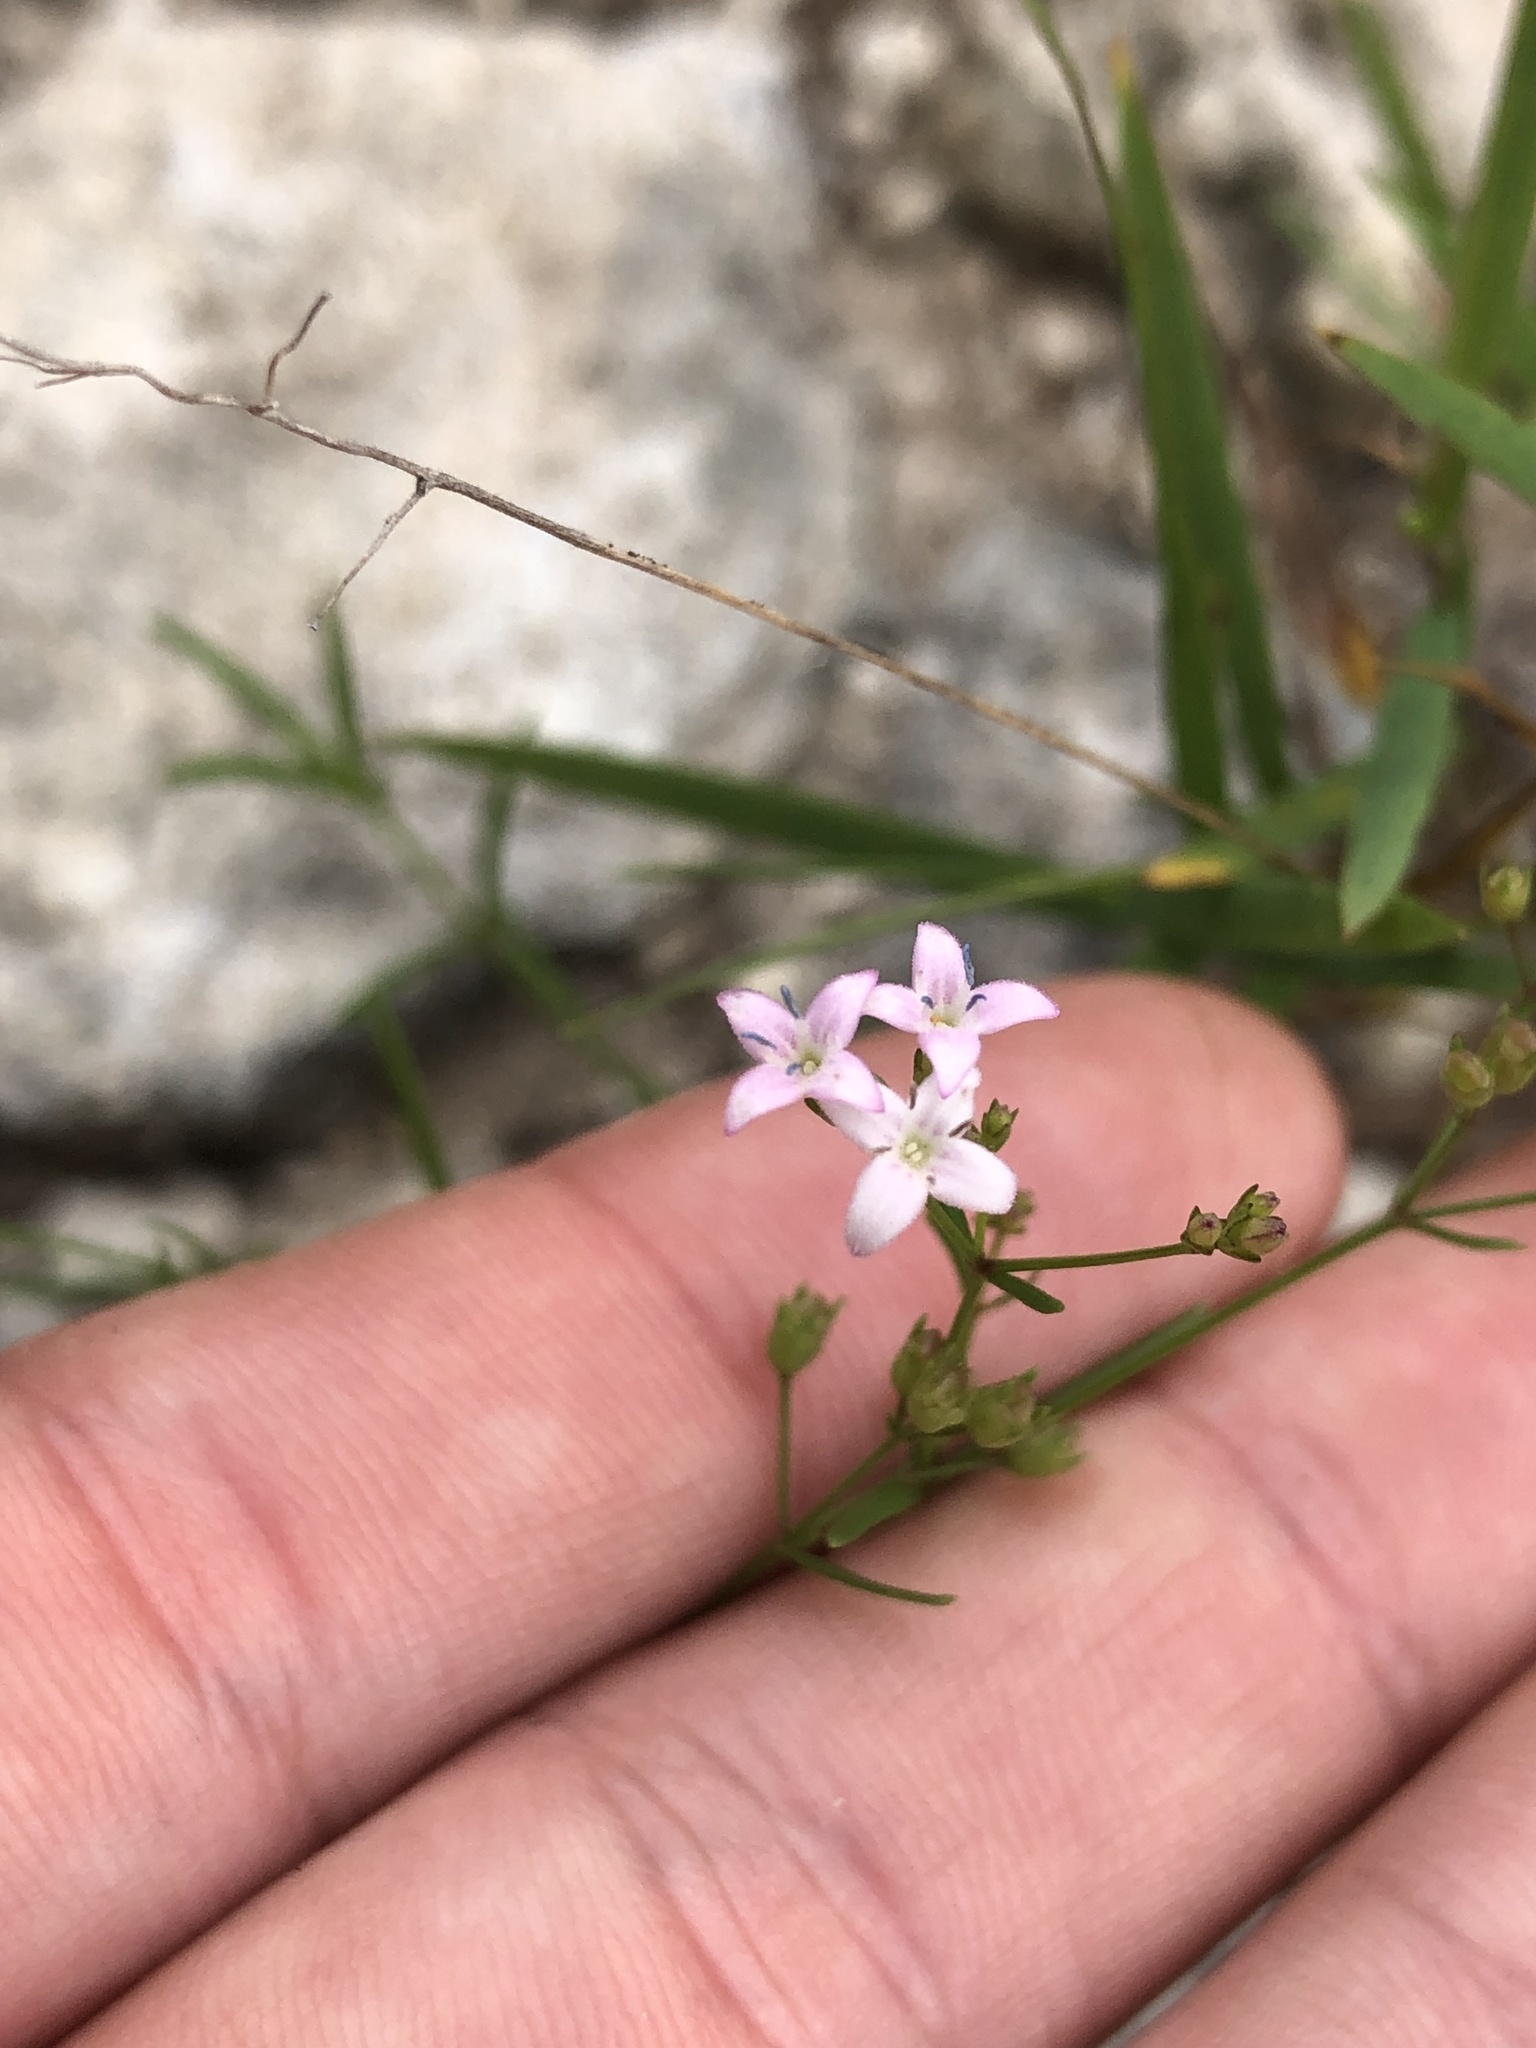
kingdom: Plantae
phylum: Tracheophyta
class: Magnoliopsida
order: Gentianales
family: Rubiaceae
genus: Stenaria
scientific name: Stenaria nigricans
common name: Diamondflowers
